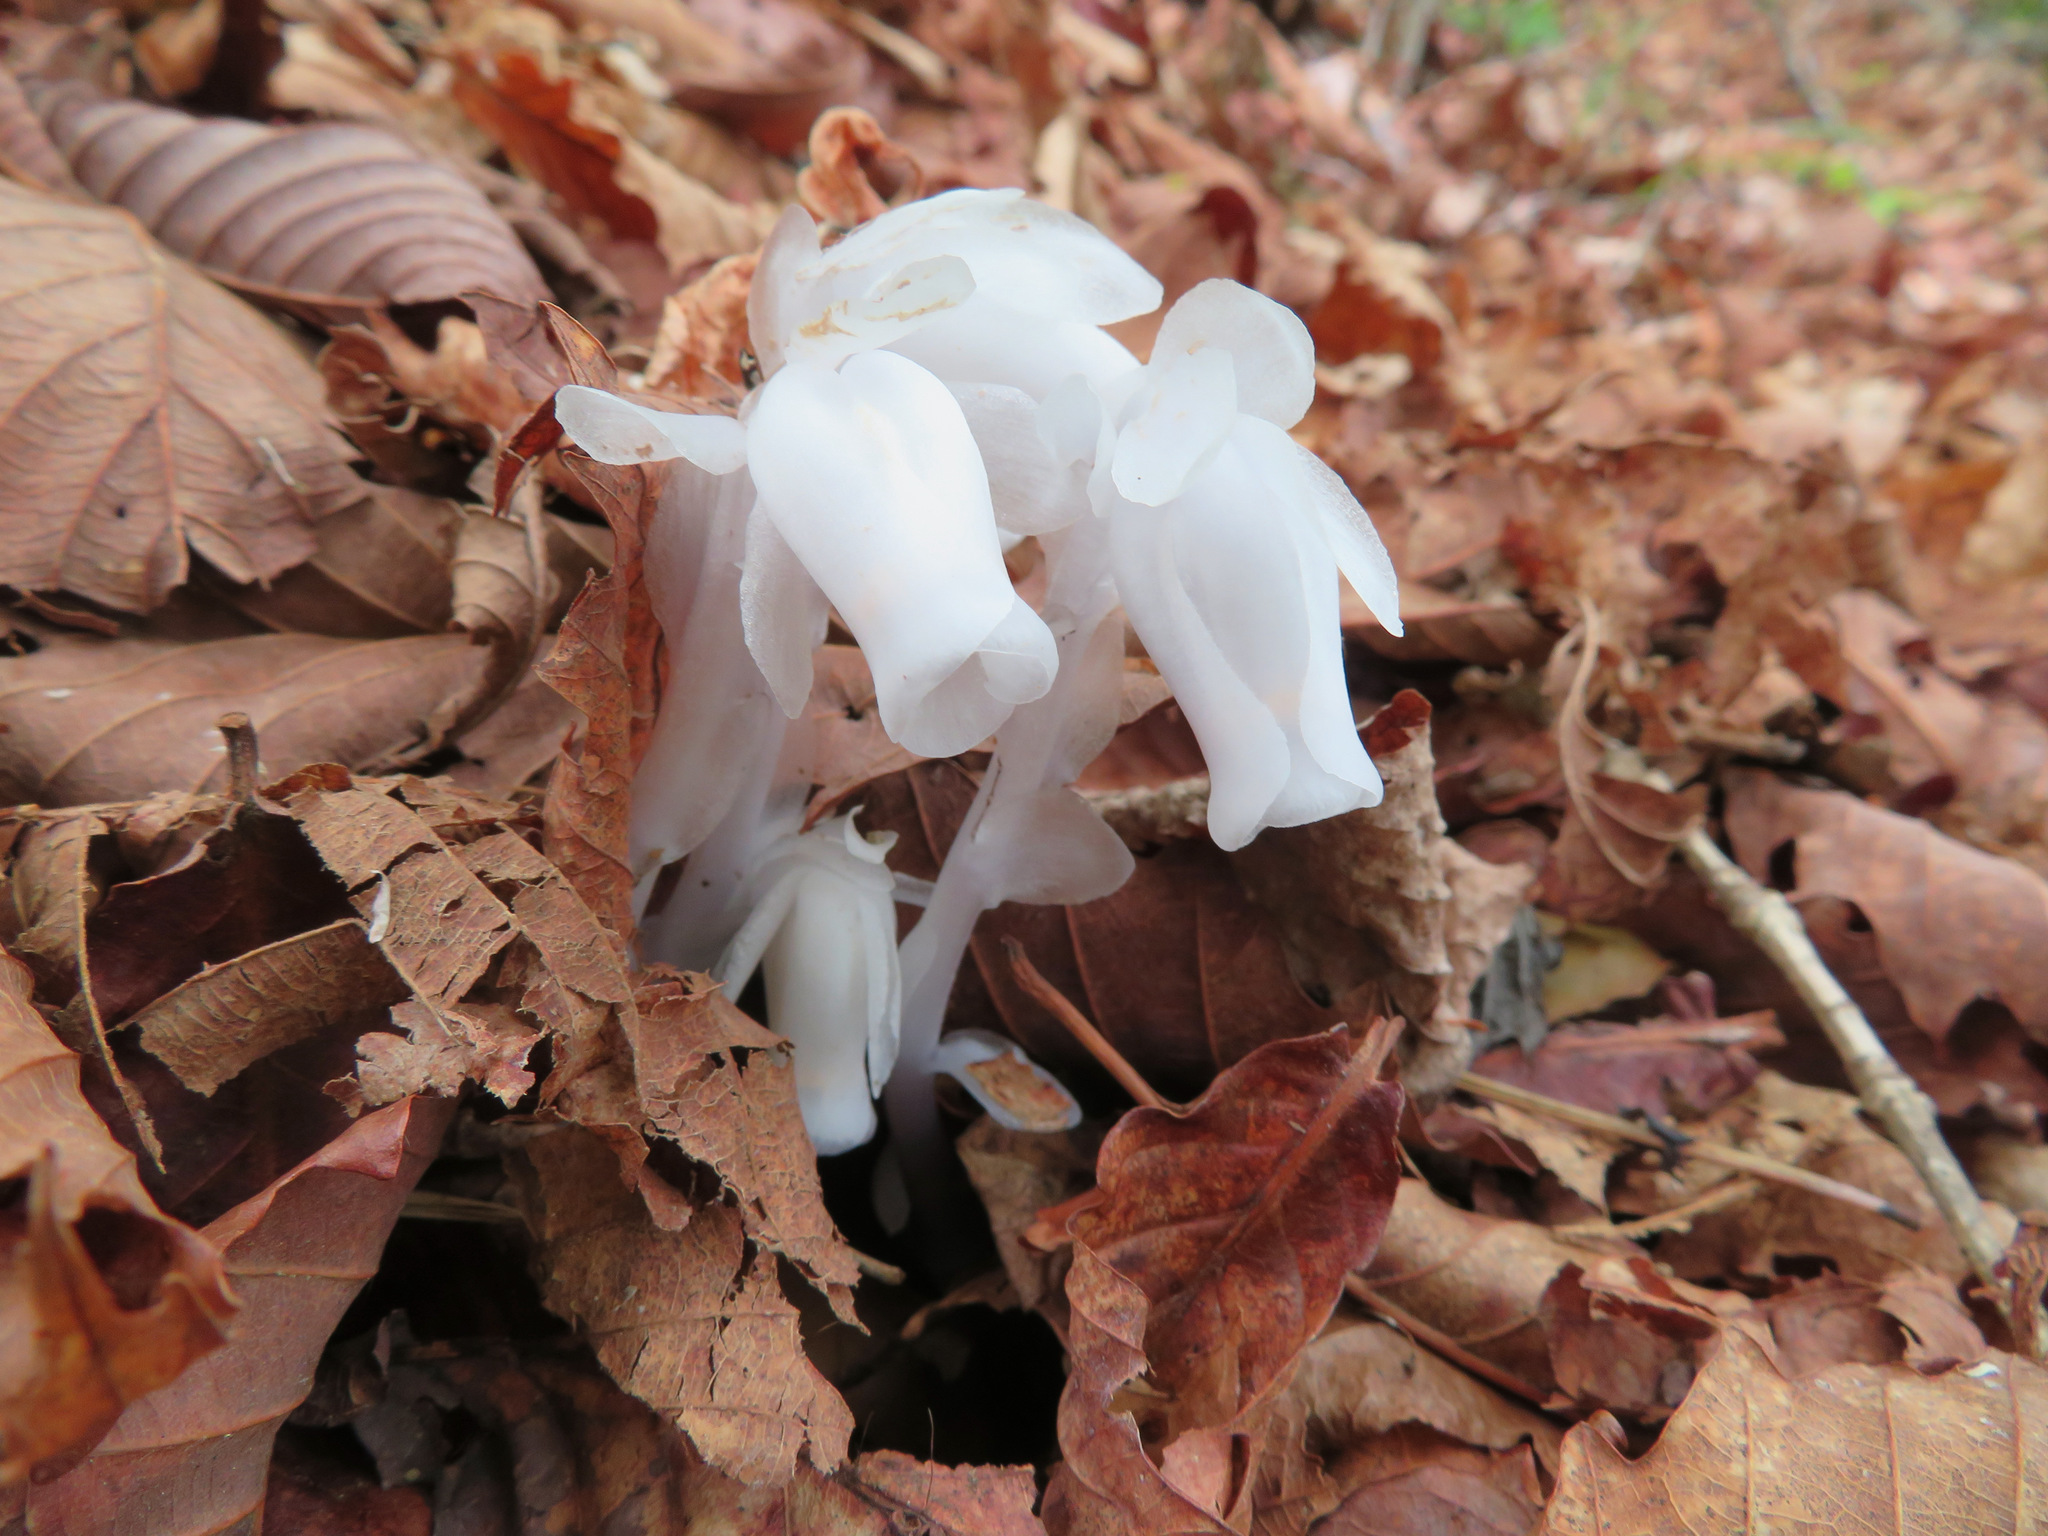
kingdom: Plantae
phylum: Tracheophyta
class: Magnoliopsida
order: Ericales
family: Ericaceae
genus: Monotropastrum
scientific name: Monotropastrum humile
